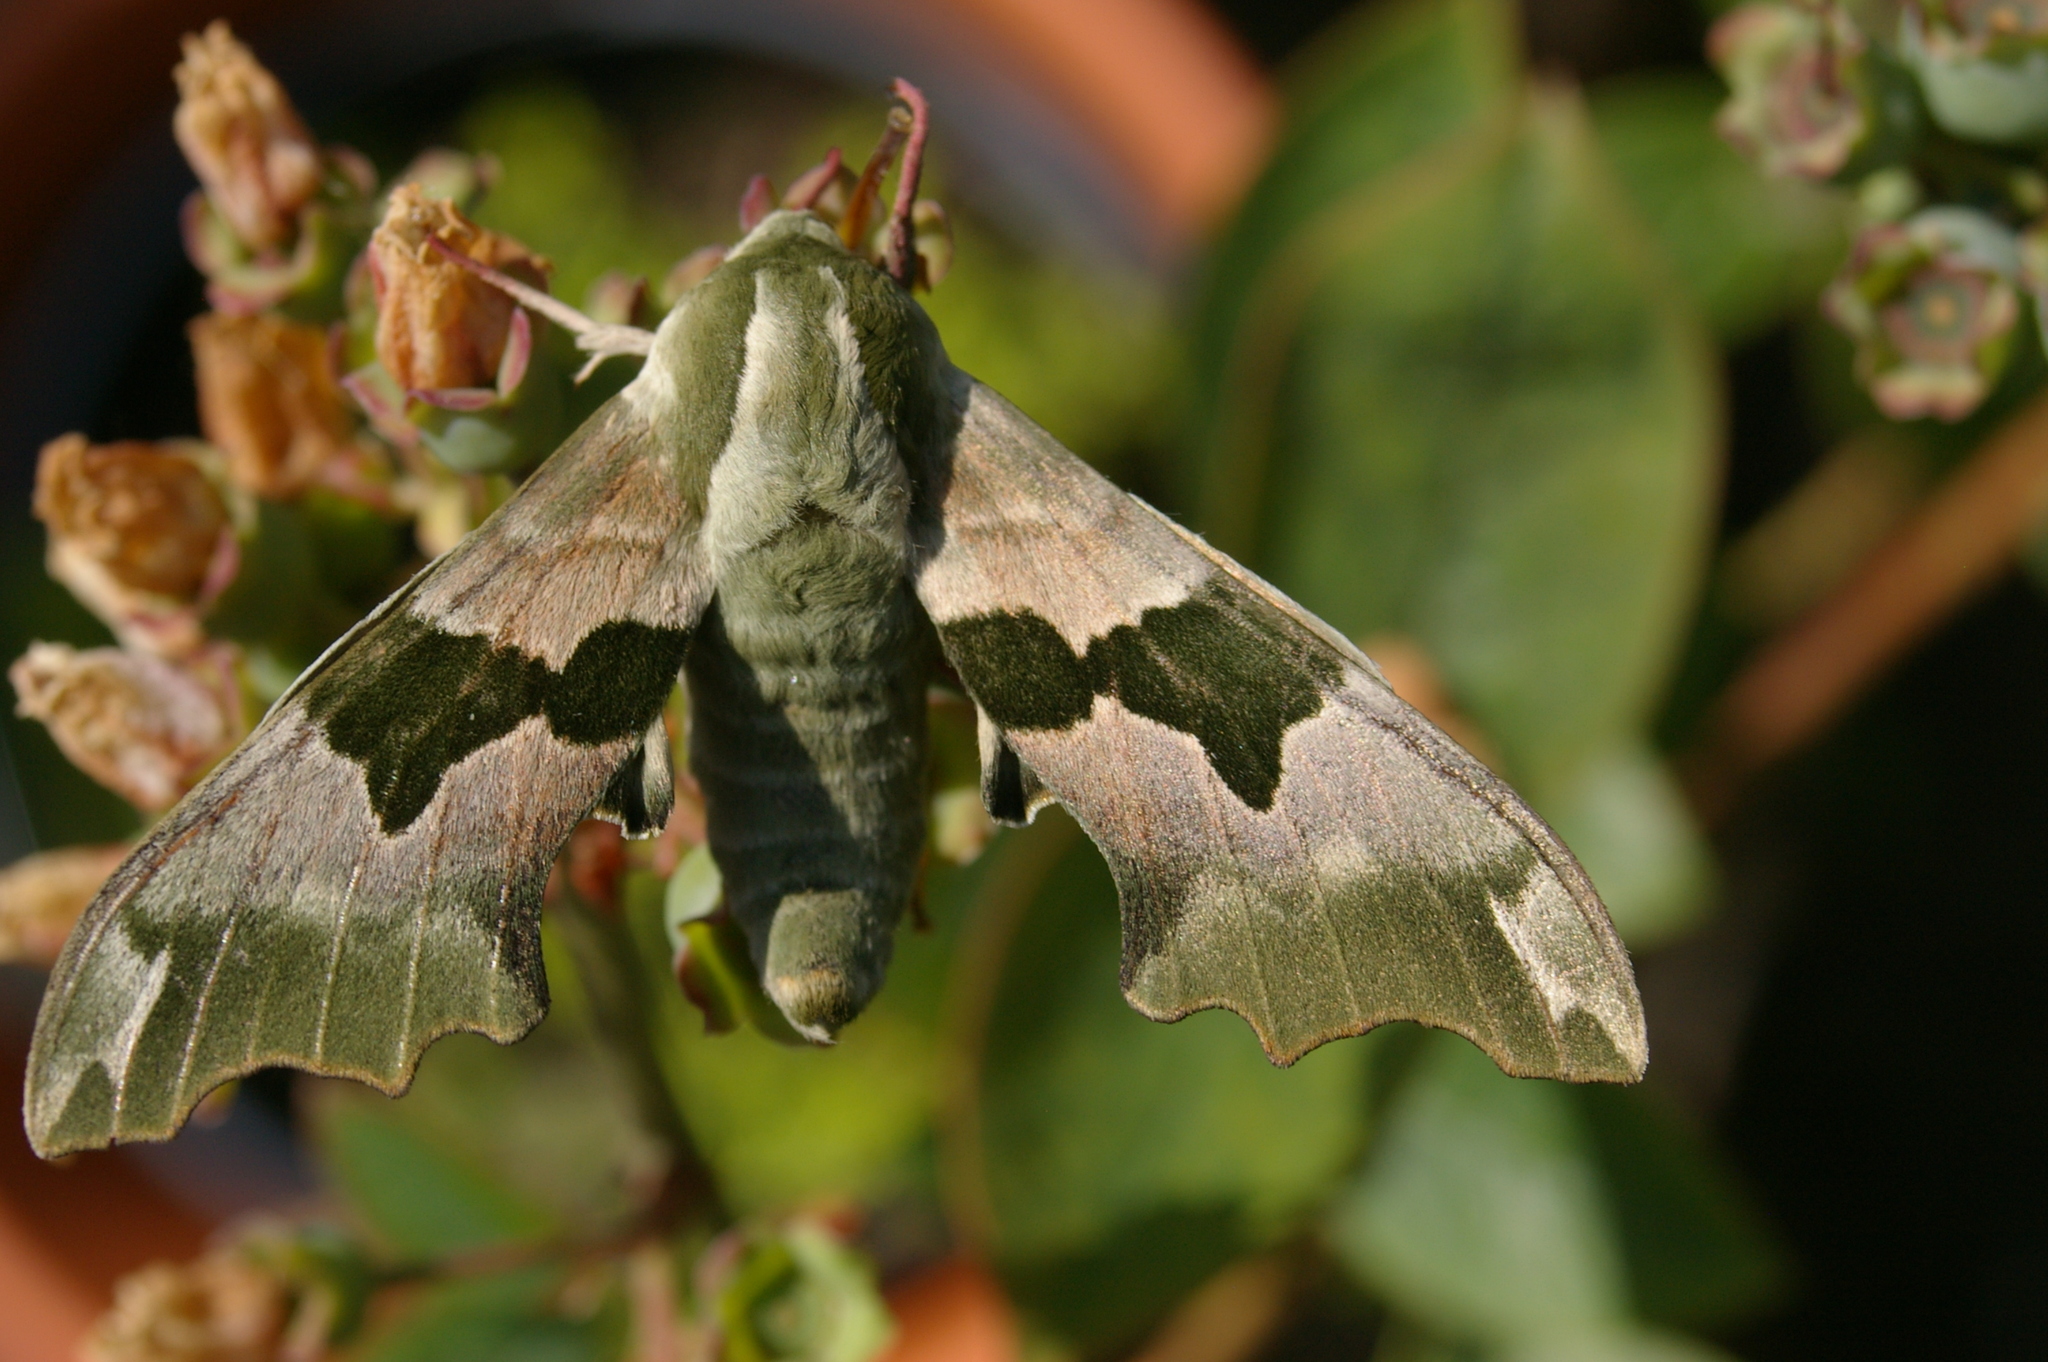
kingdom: Animalia
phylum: Arthropoda
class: Insecta
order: Lepidoptera
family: Sphingidae
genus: Mimas
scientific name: Mimas tiliae
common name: Lime hawk-moth
